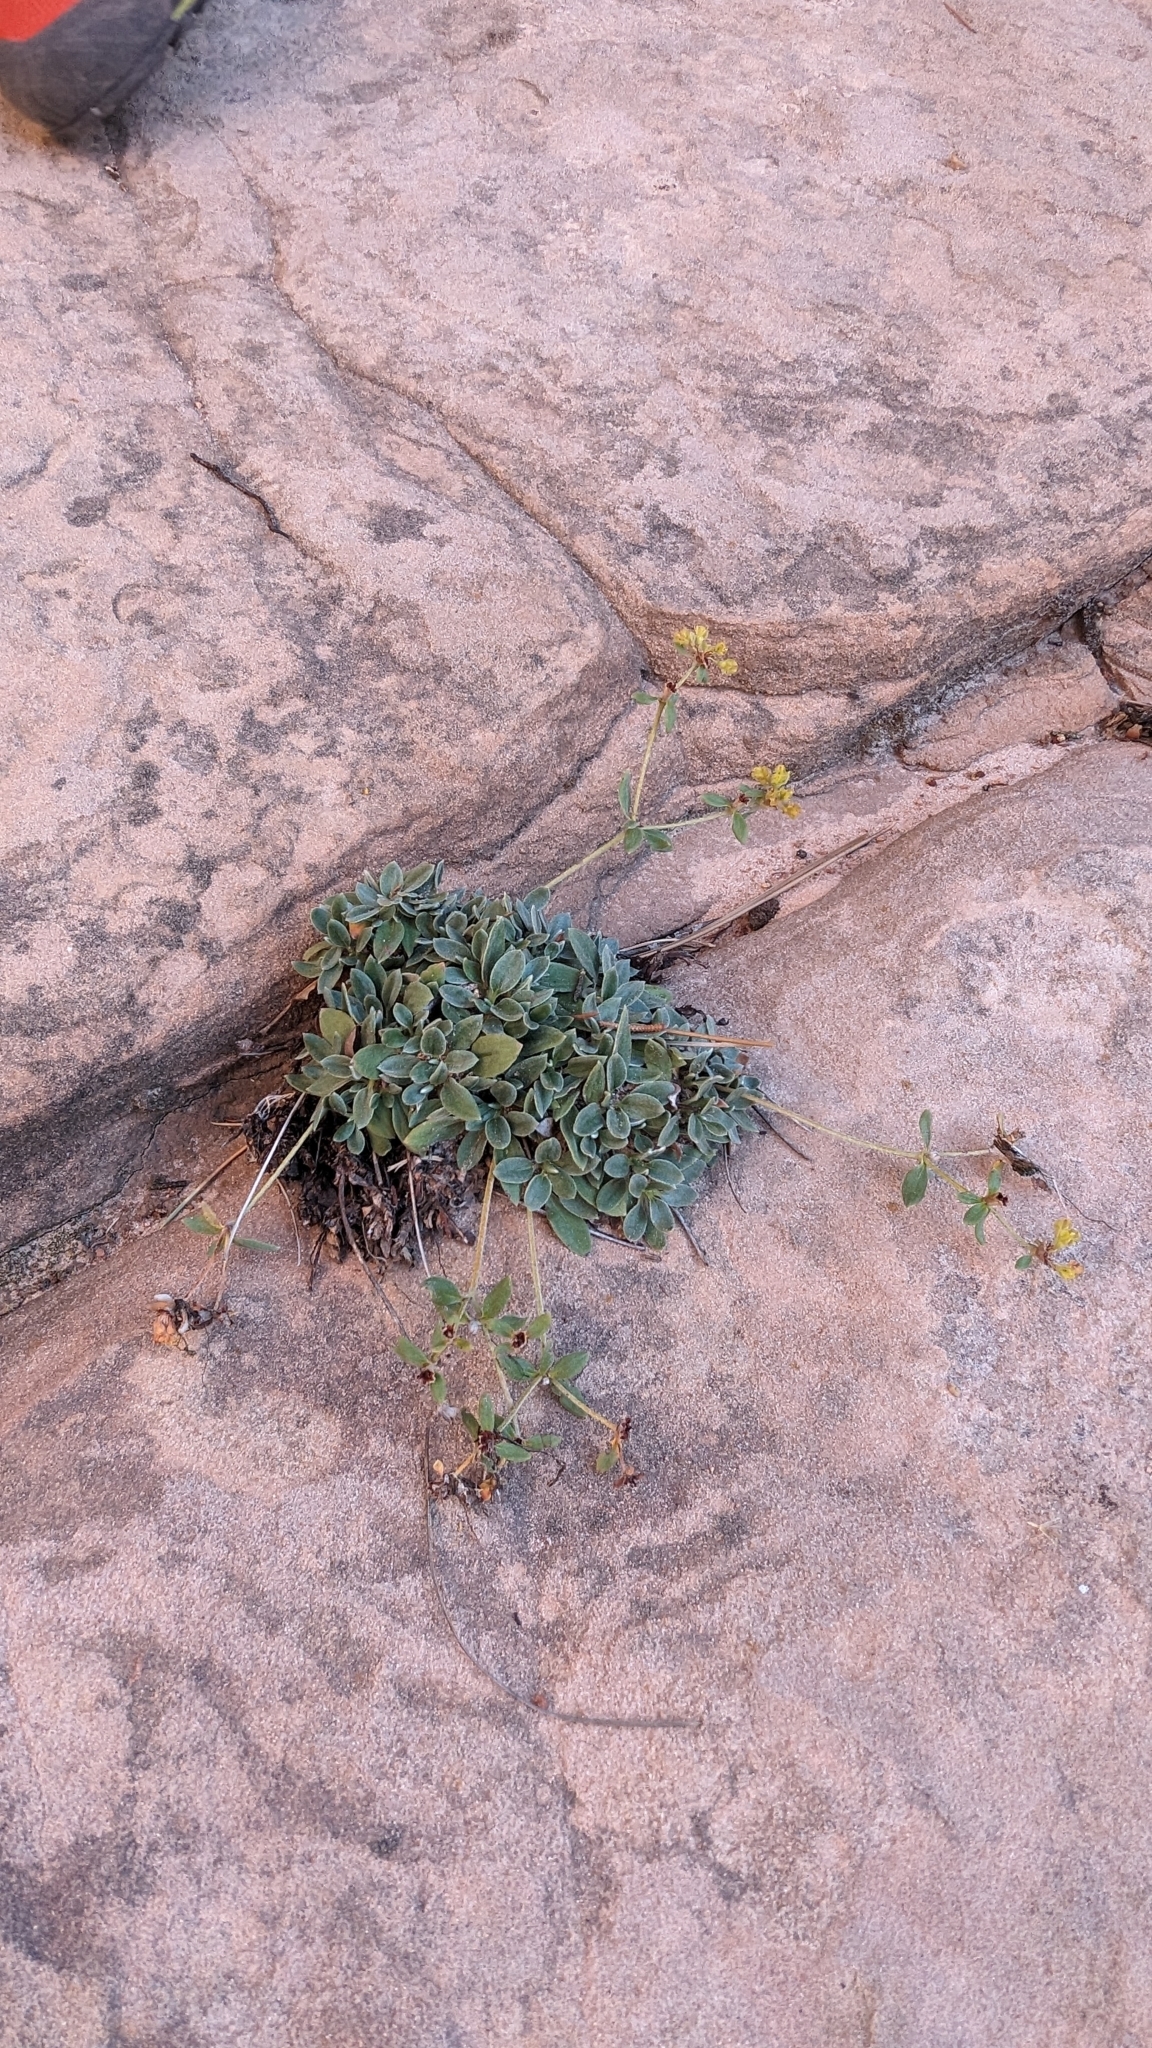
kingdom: Plantae
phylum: Tracheophyta
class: Magnoliopsida
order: Caryophyllales
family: Polygonaceae
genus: Eriogonum
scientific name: Eriogonum arcuatum
